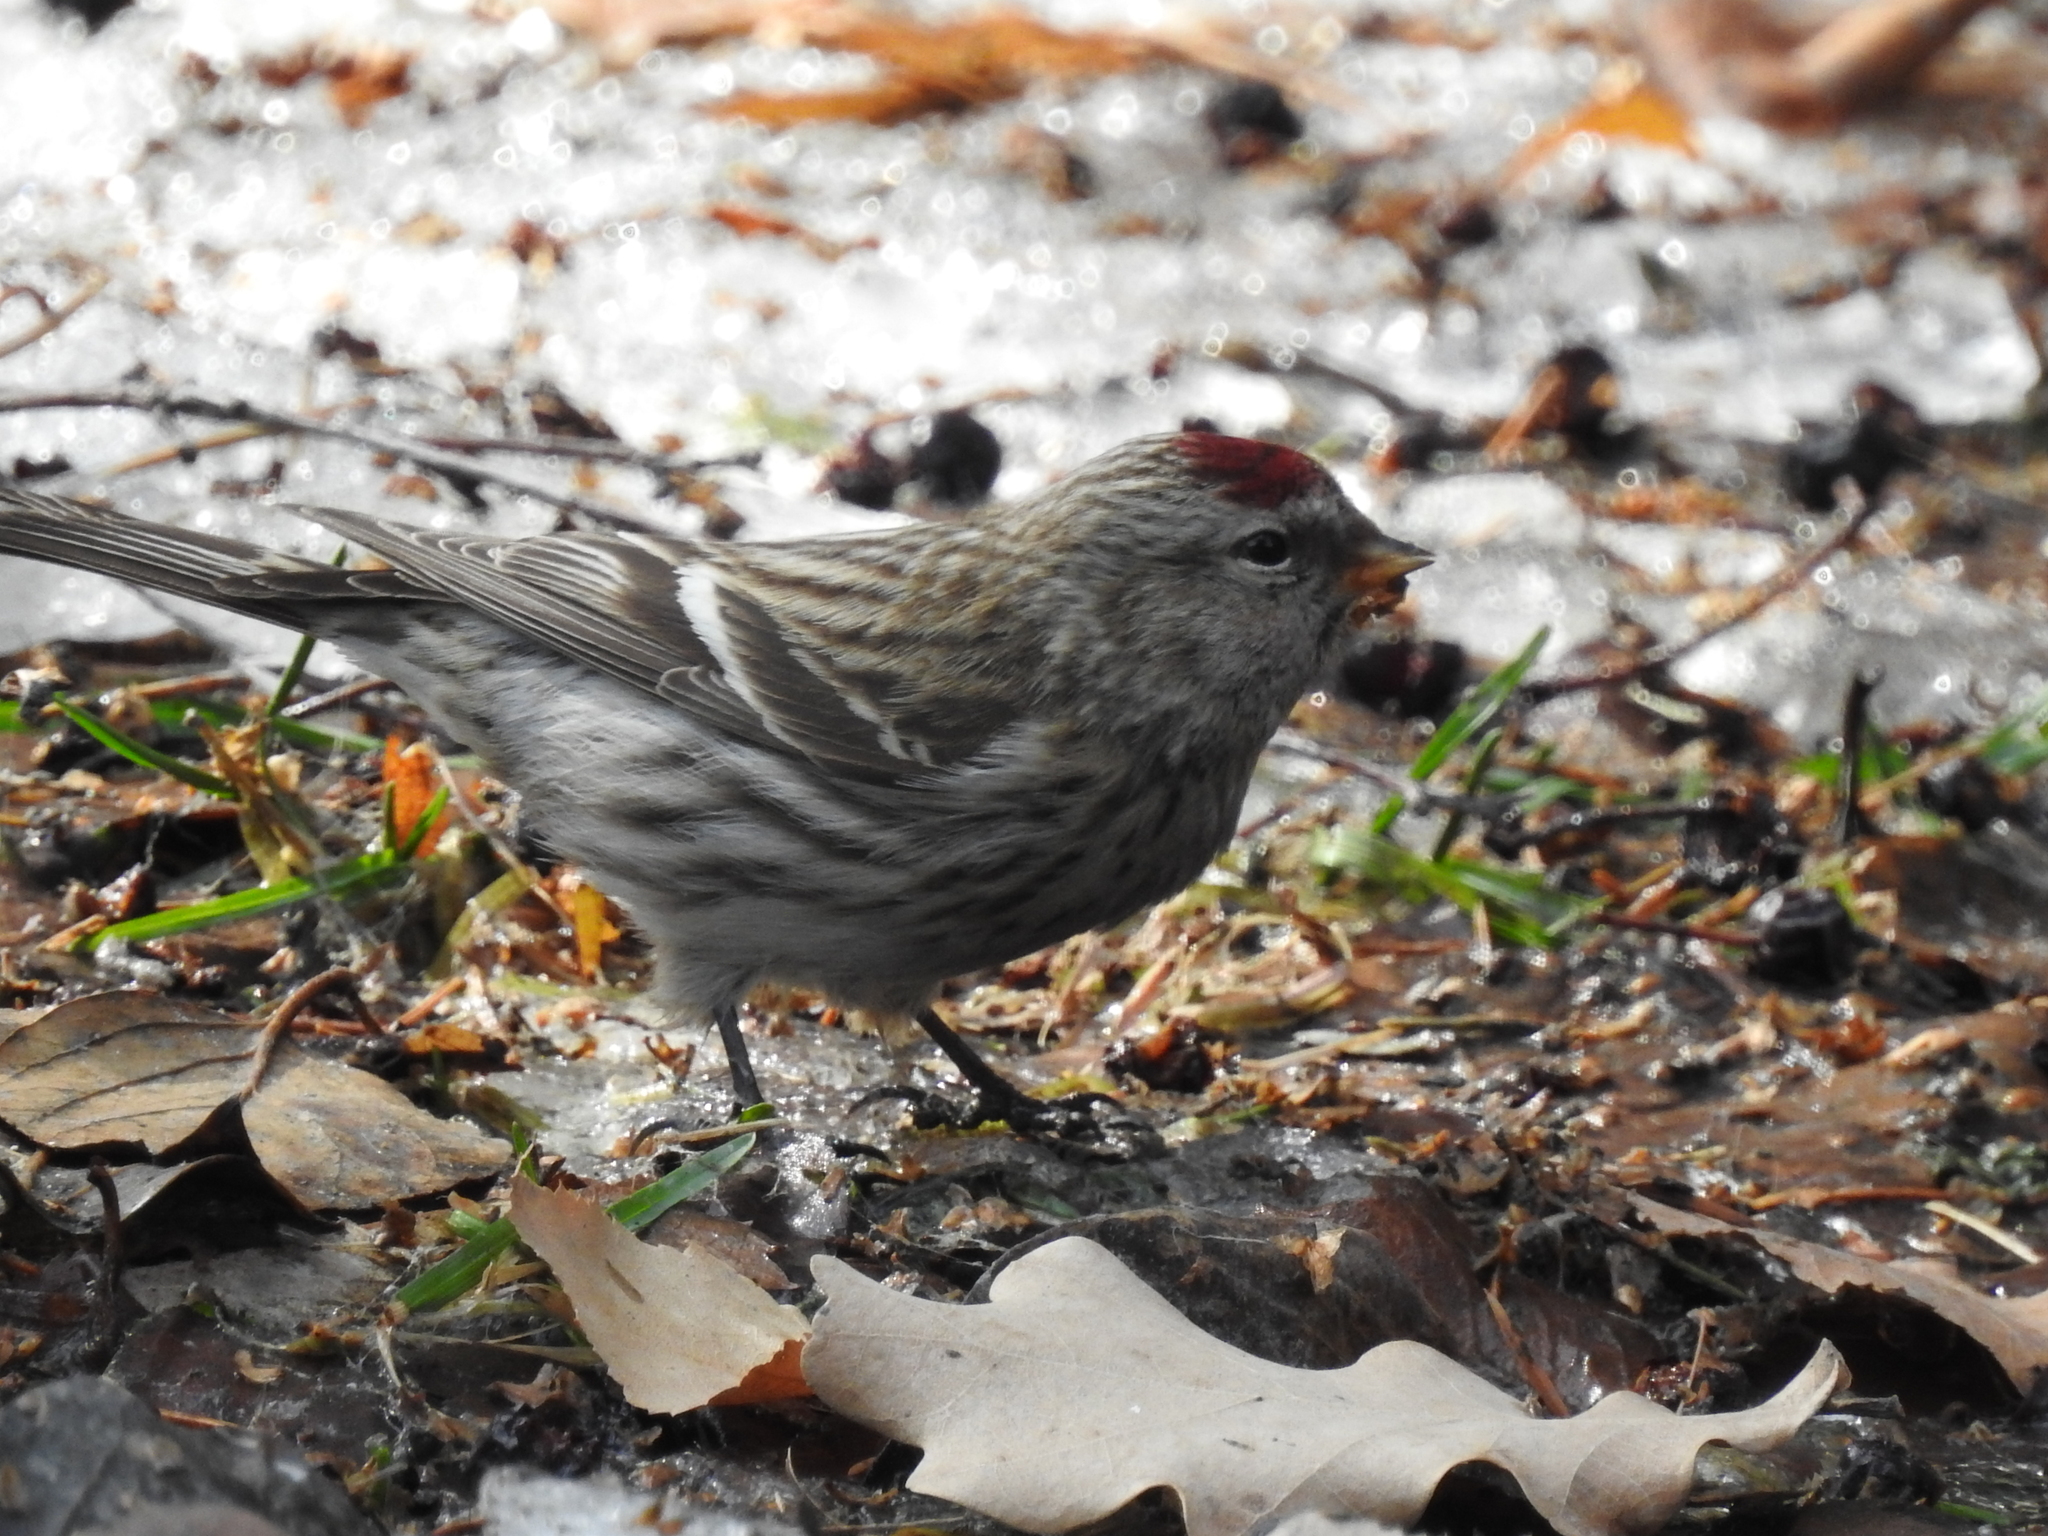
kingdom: Animalia
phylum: Chordata
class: Aves
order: Passeriformes
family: Fringillidae
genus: Acanthis
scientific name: Acanthis flammea
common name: Common redpoll
